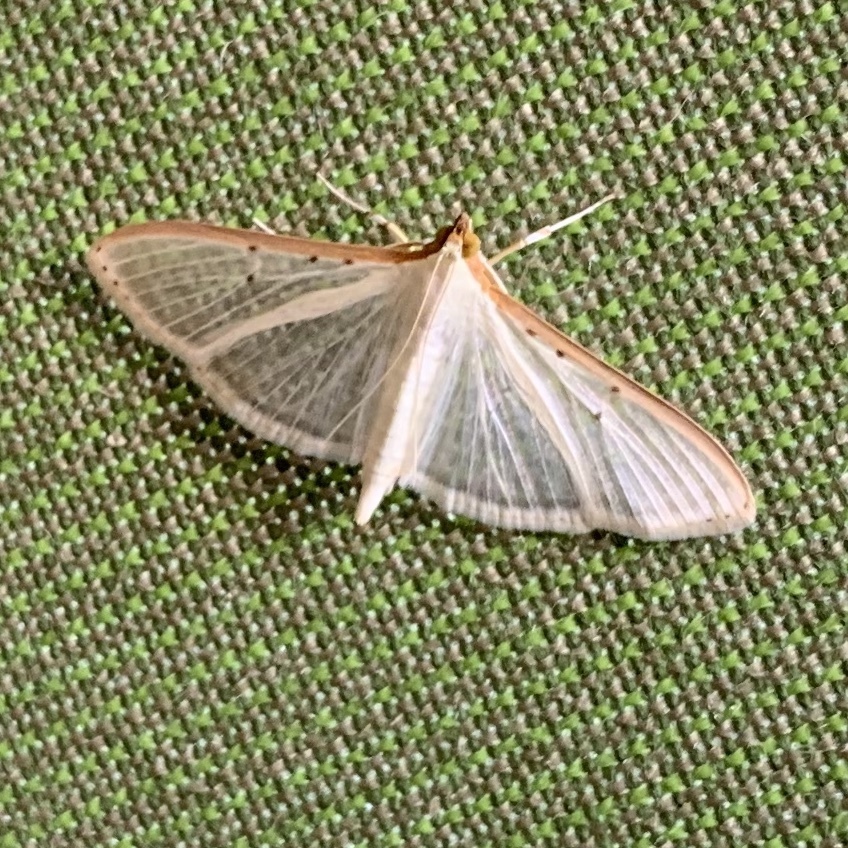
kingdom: Animalia
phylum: Arthropoda
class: Insecta
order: Lepidoptera
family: Crambidae
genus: Palpita
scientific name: Palpita quadristigmalis
